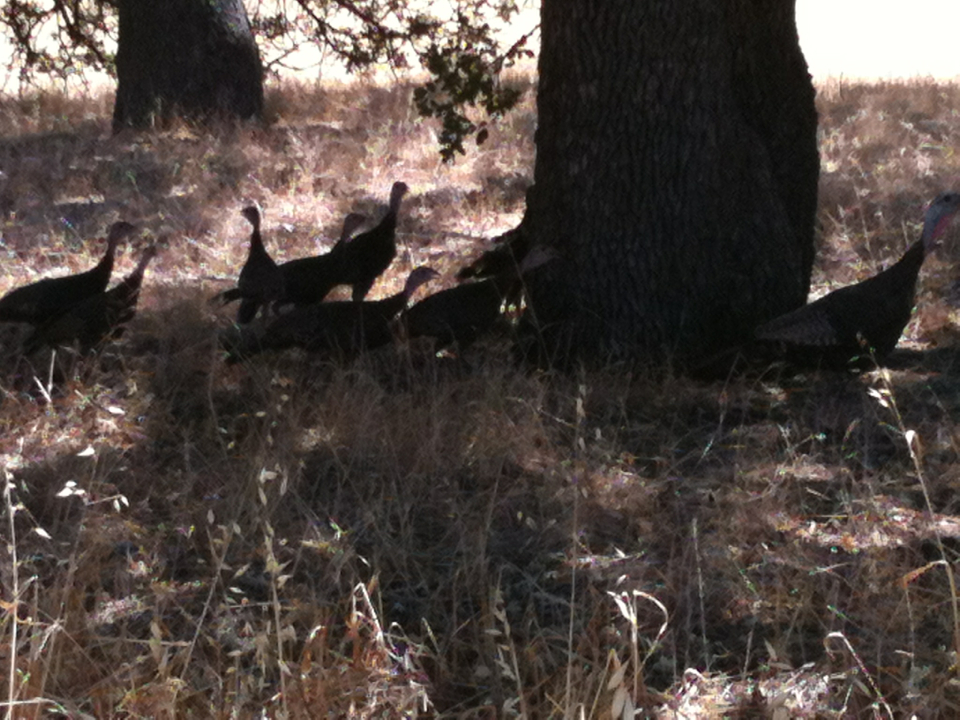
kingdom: Animalia
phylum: Chordata
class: Aves
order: Galliformes
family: Phasianidae
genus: Meleagris
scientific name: Meleagris gallopavo
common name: Wild turkey
